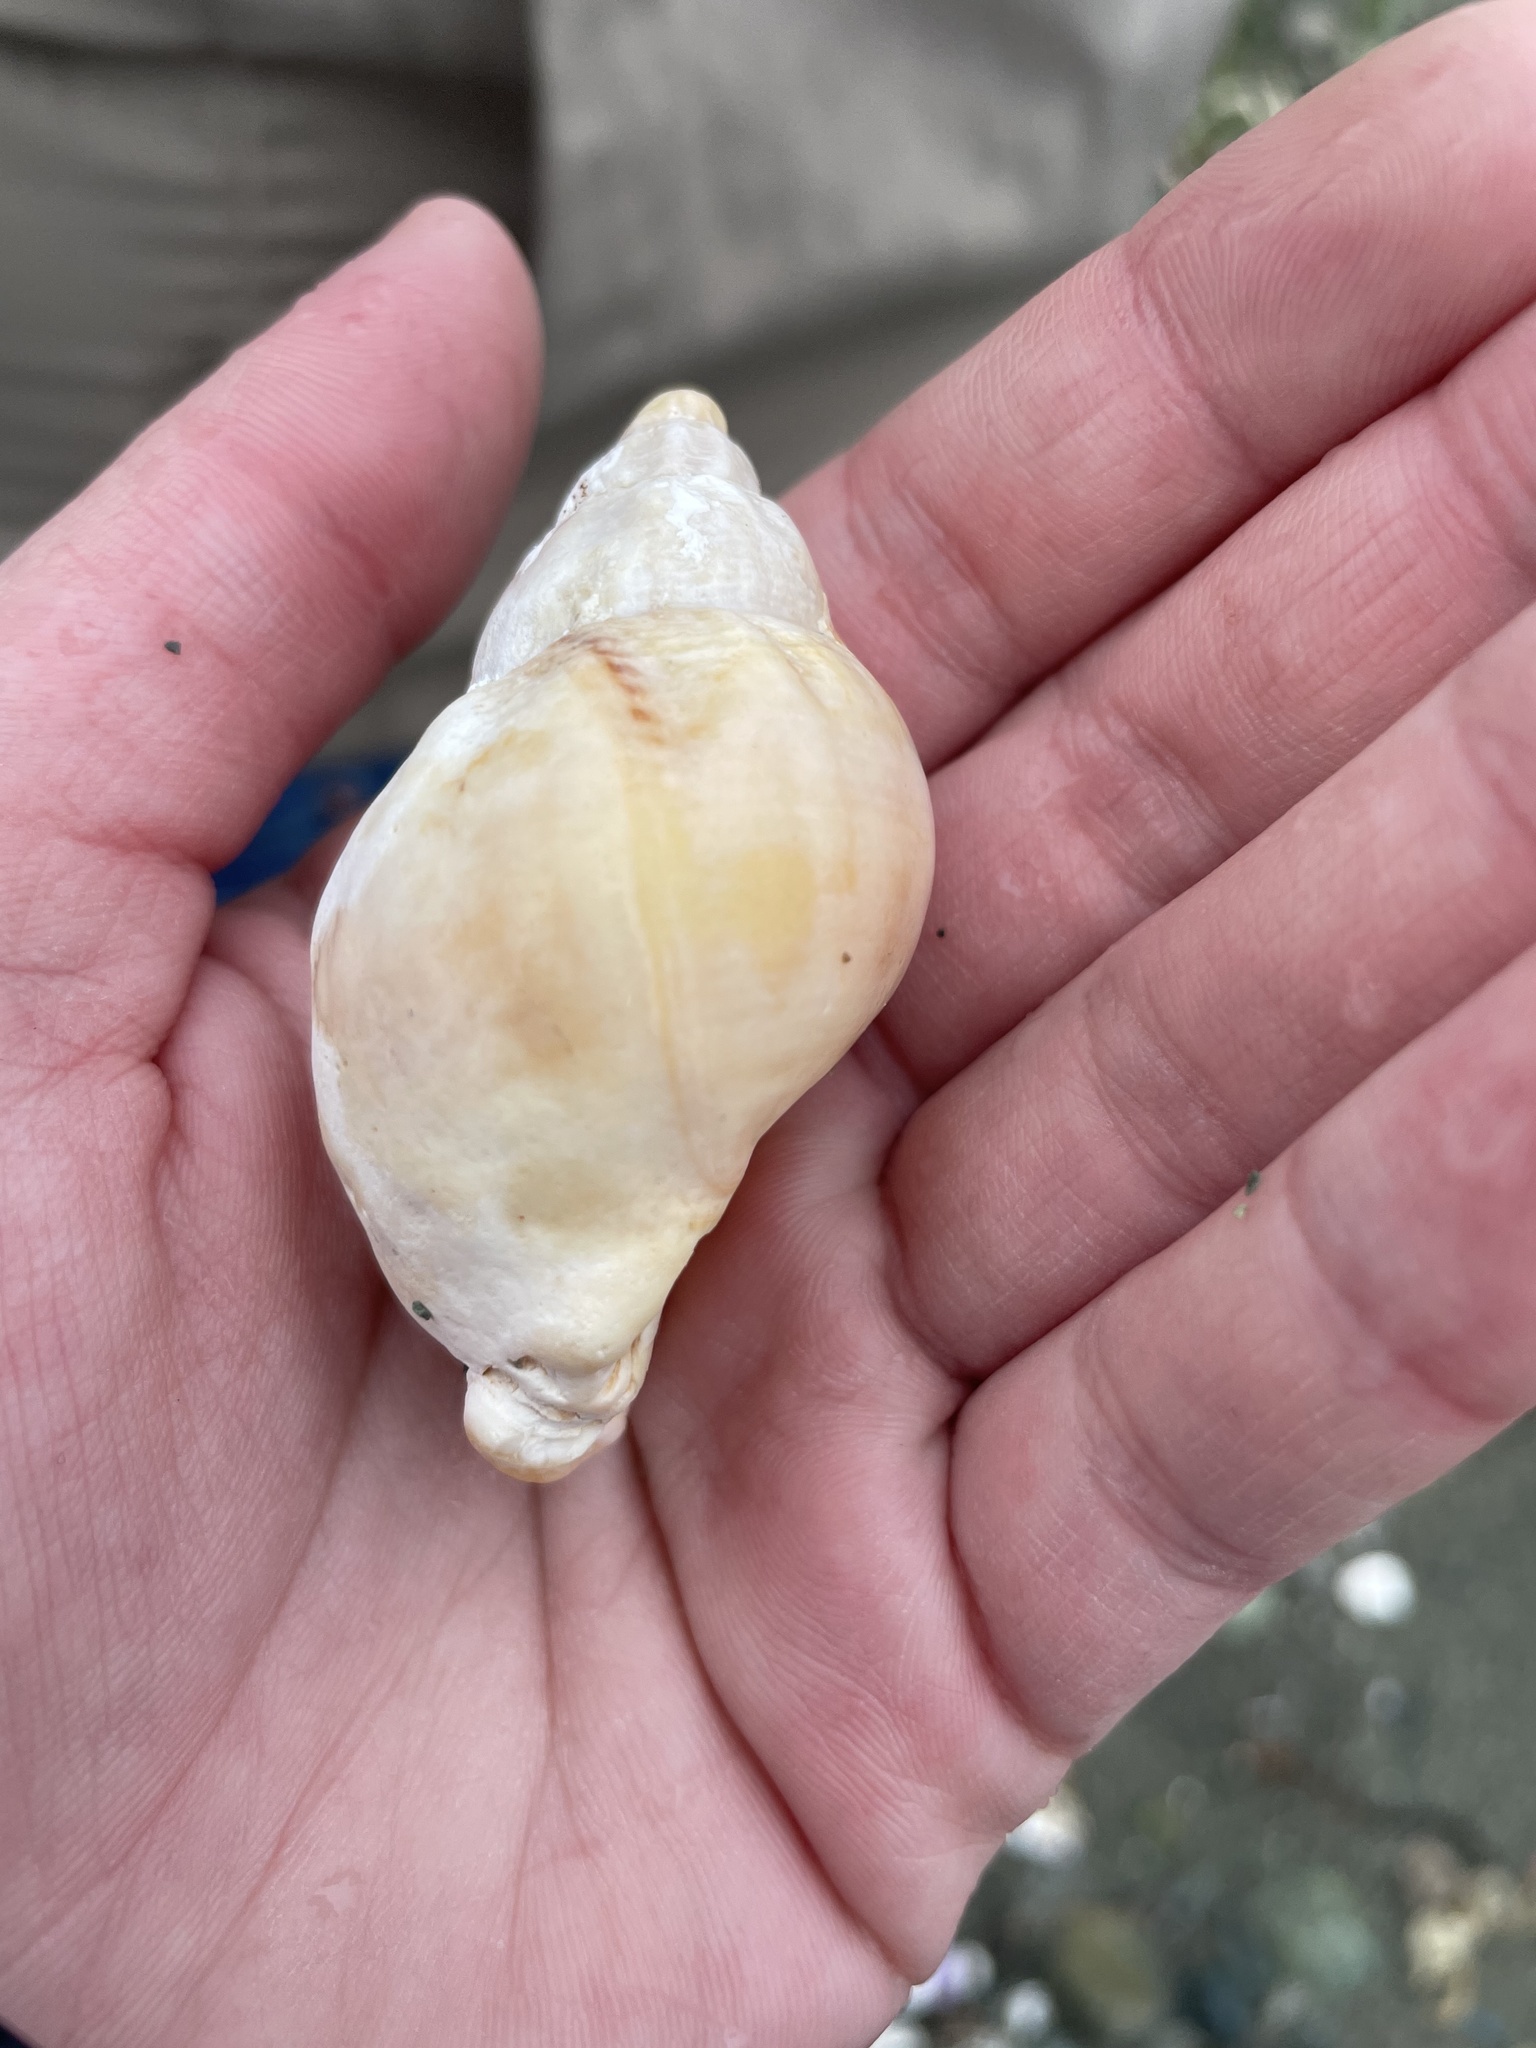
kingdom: Animalia
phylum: Mollusca
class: Gastropoda
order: Neogastropoda
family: Buccinidae
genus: Buccinum
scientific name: Buccinum undatum
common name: Common whelk
